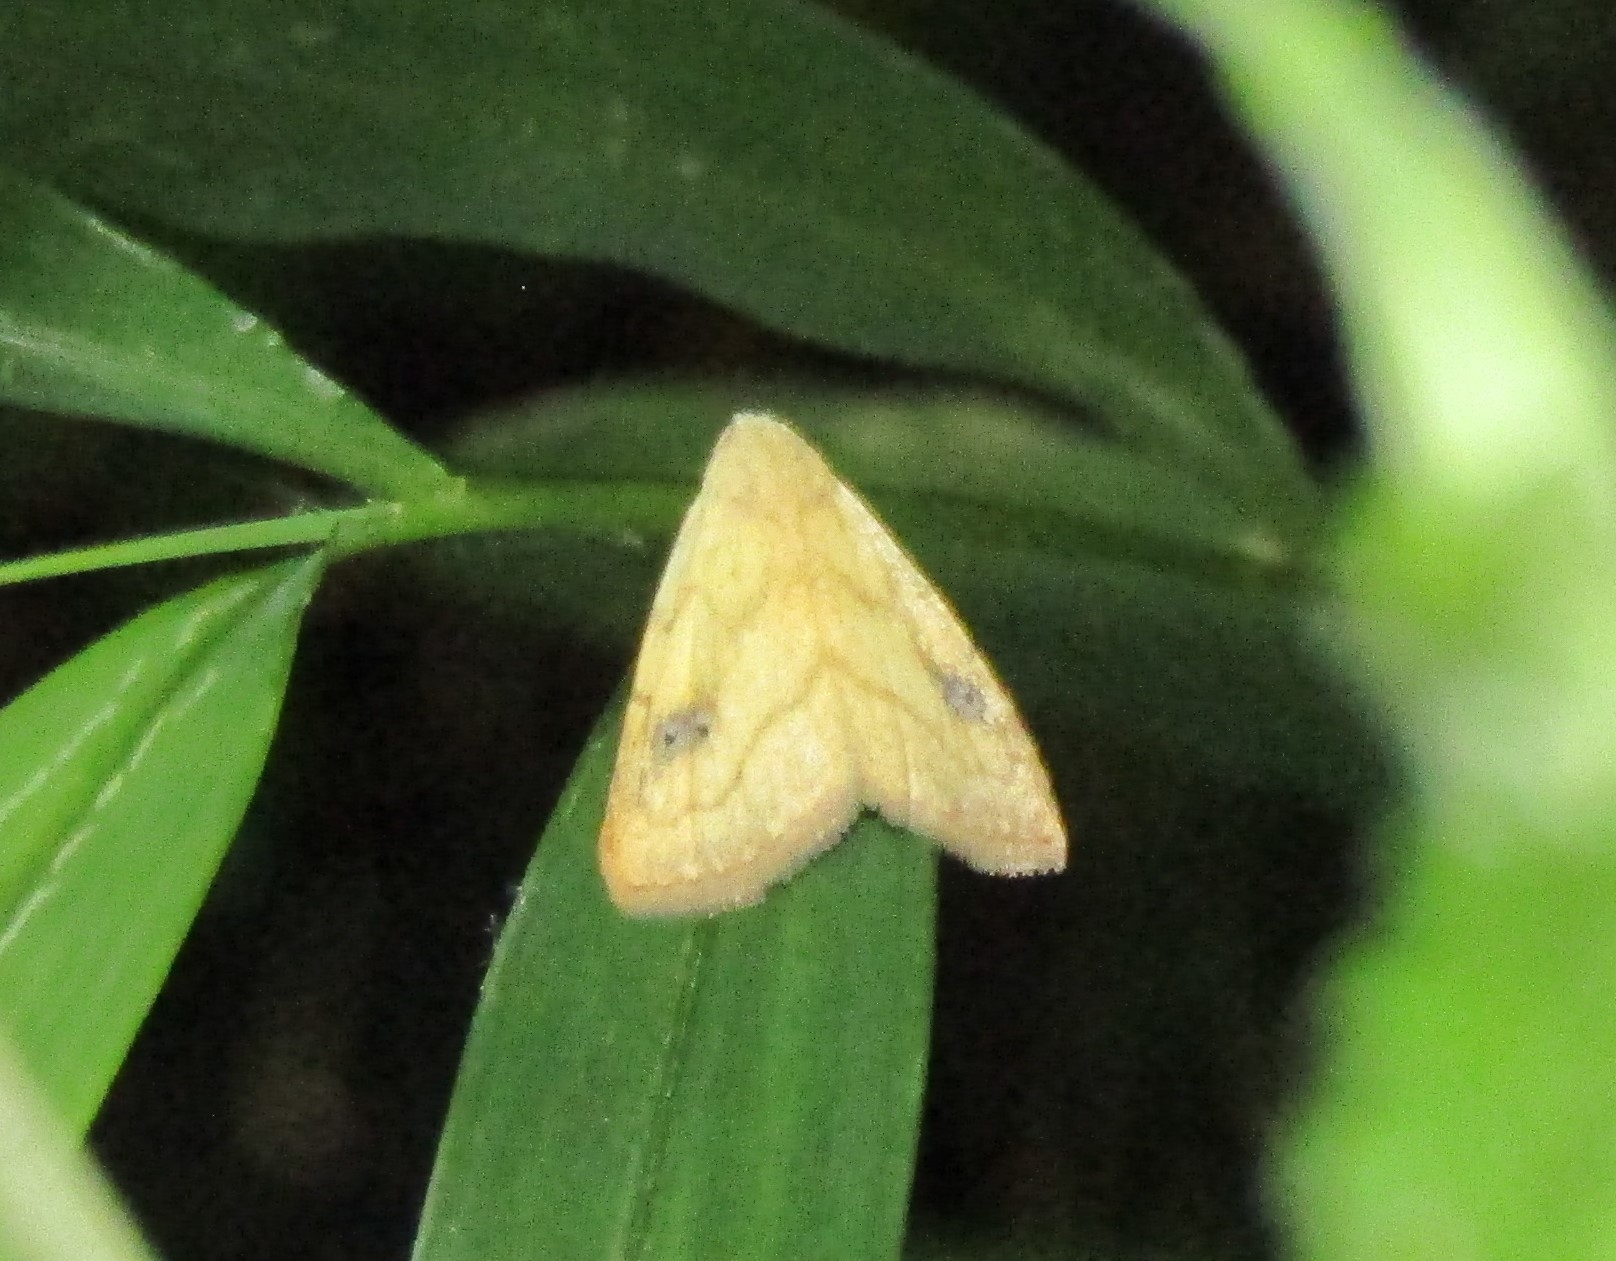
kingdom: Animalia
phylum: Arthropoda
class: Insecta
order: Lepidoptera
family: Erebidae
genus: Rivula
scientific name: Rivula propinqualis
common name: Spotted grass moth
